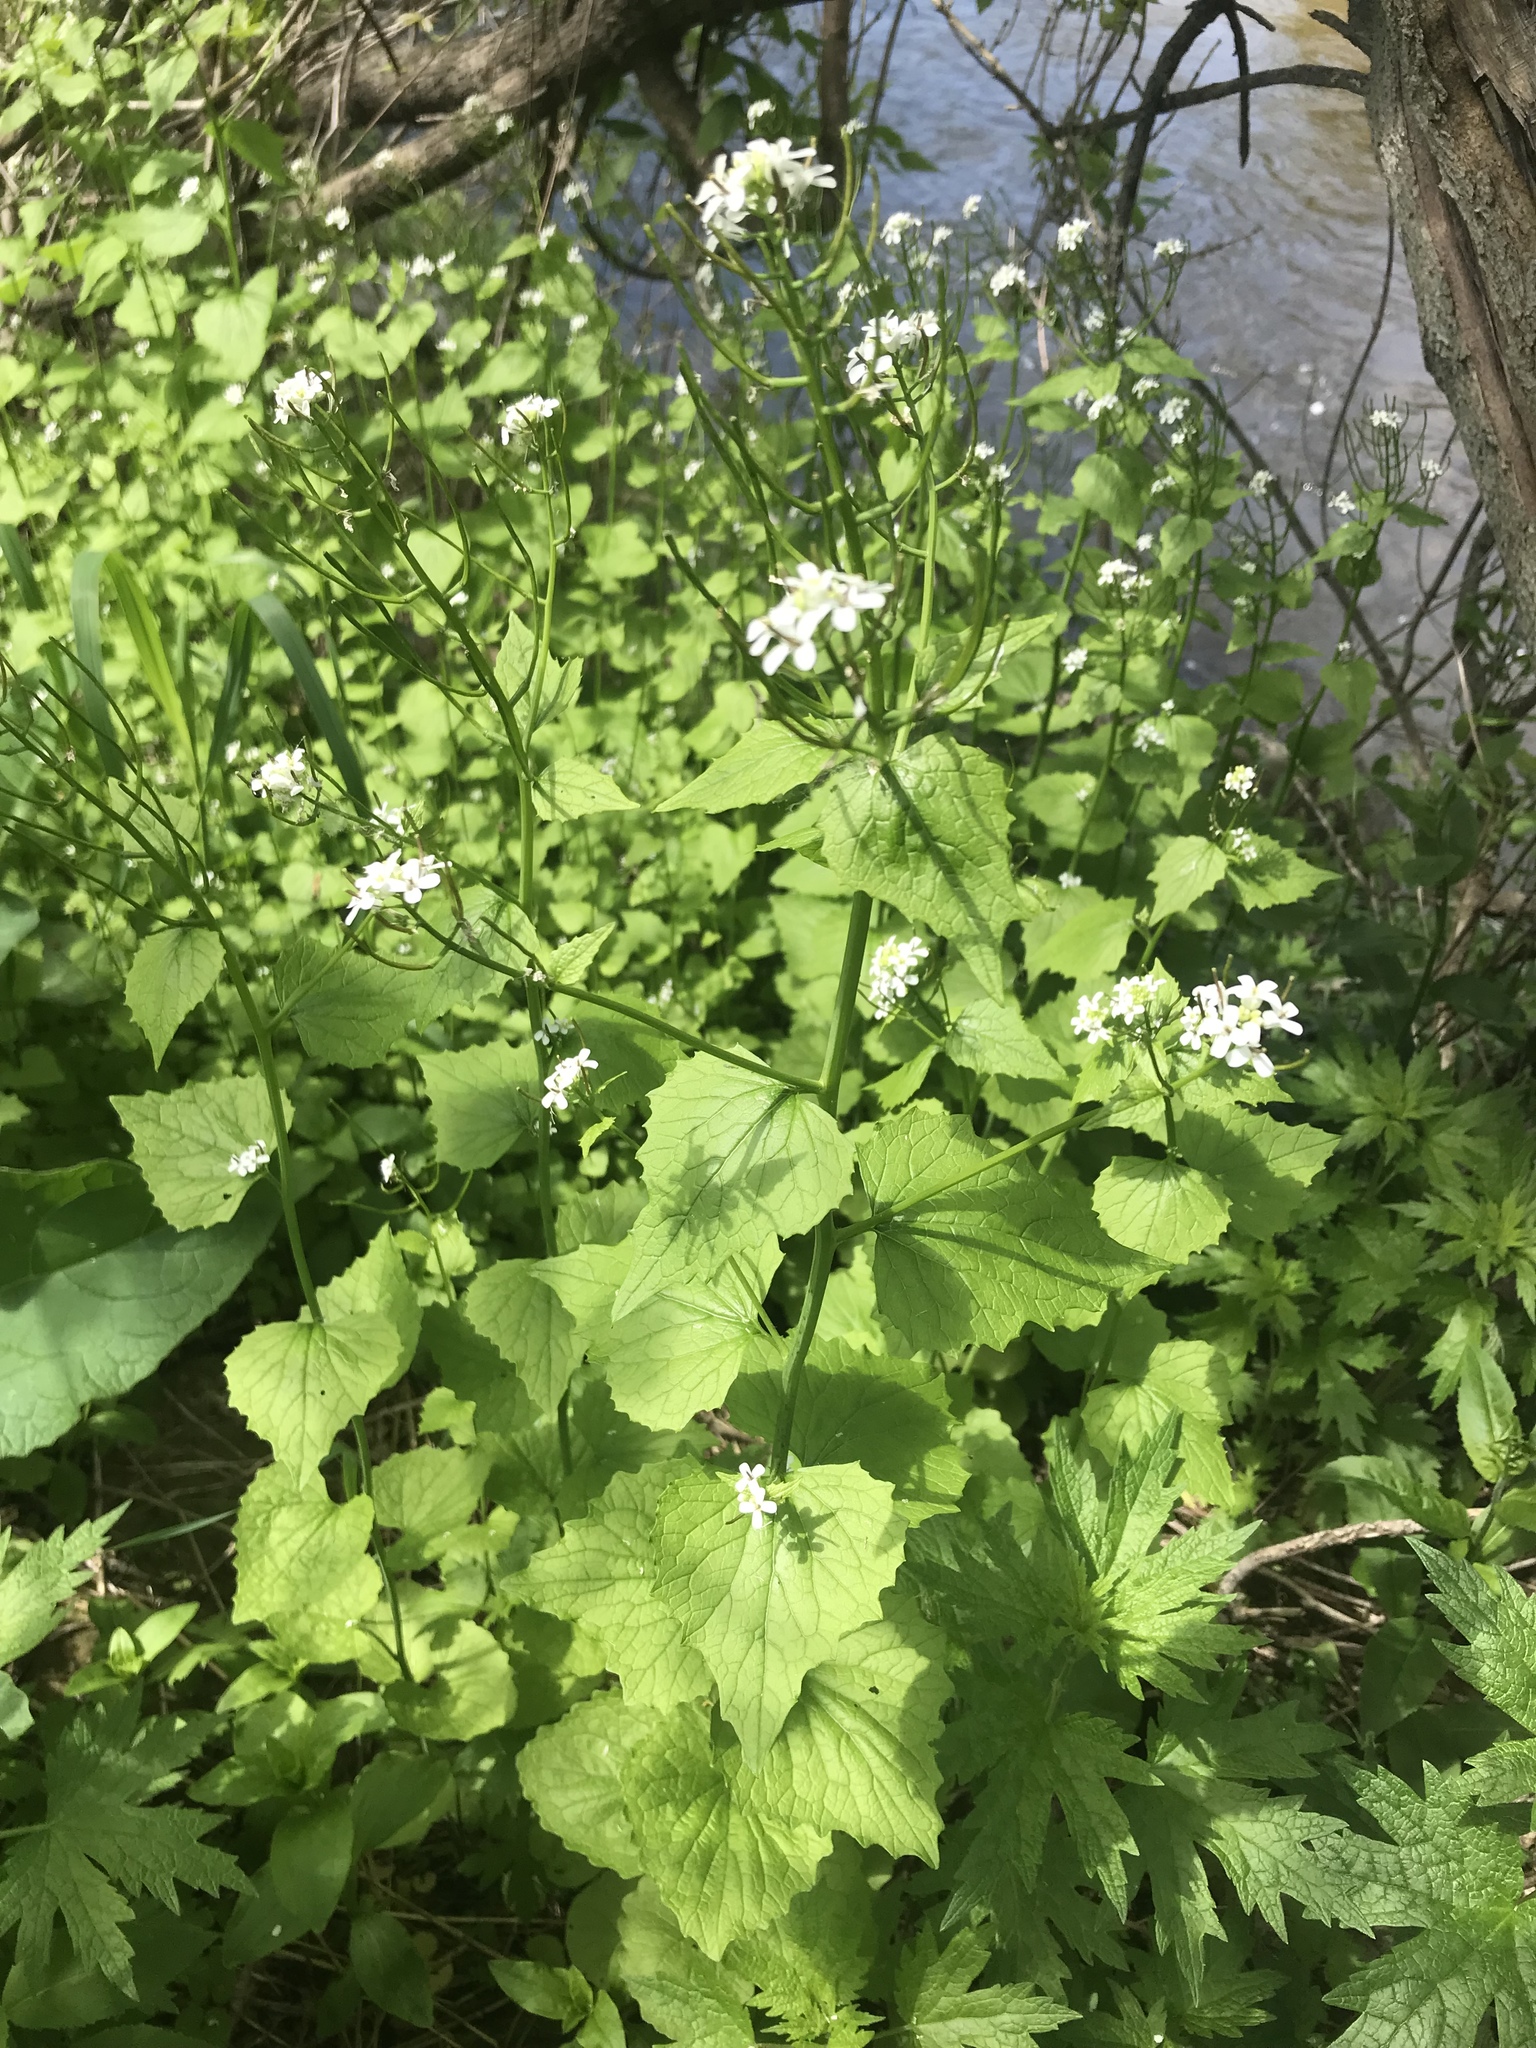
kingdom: Plantae
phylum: Tracheophyta
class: Magnoliopsida
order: Brassicales
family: Brassicaceae
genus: Alliaria
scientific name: Alliaria petiolata
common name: Garlic mustard
